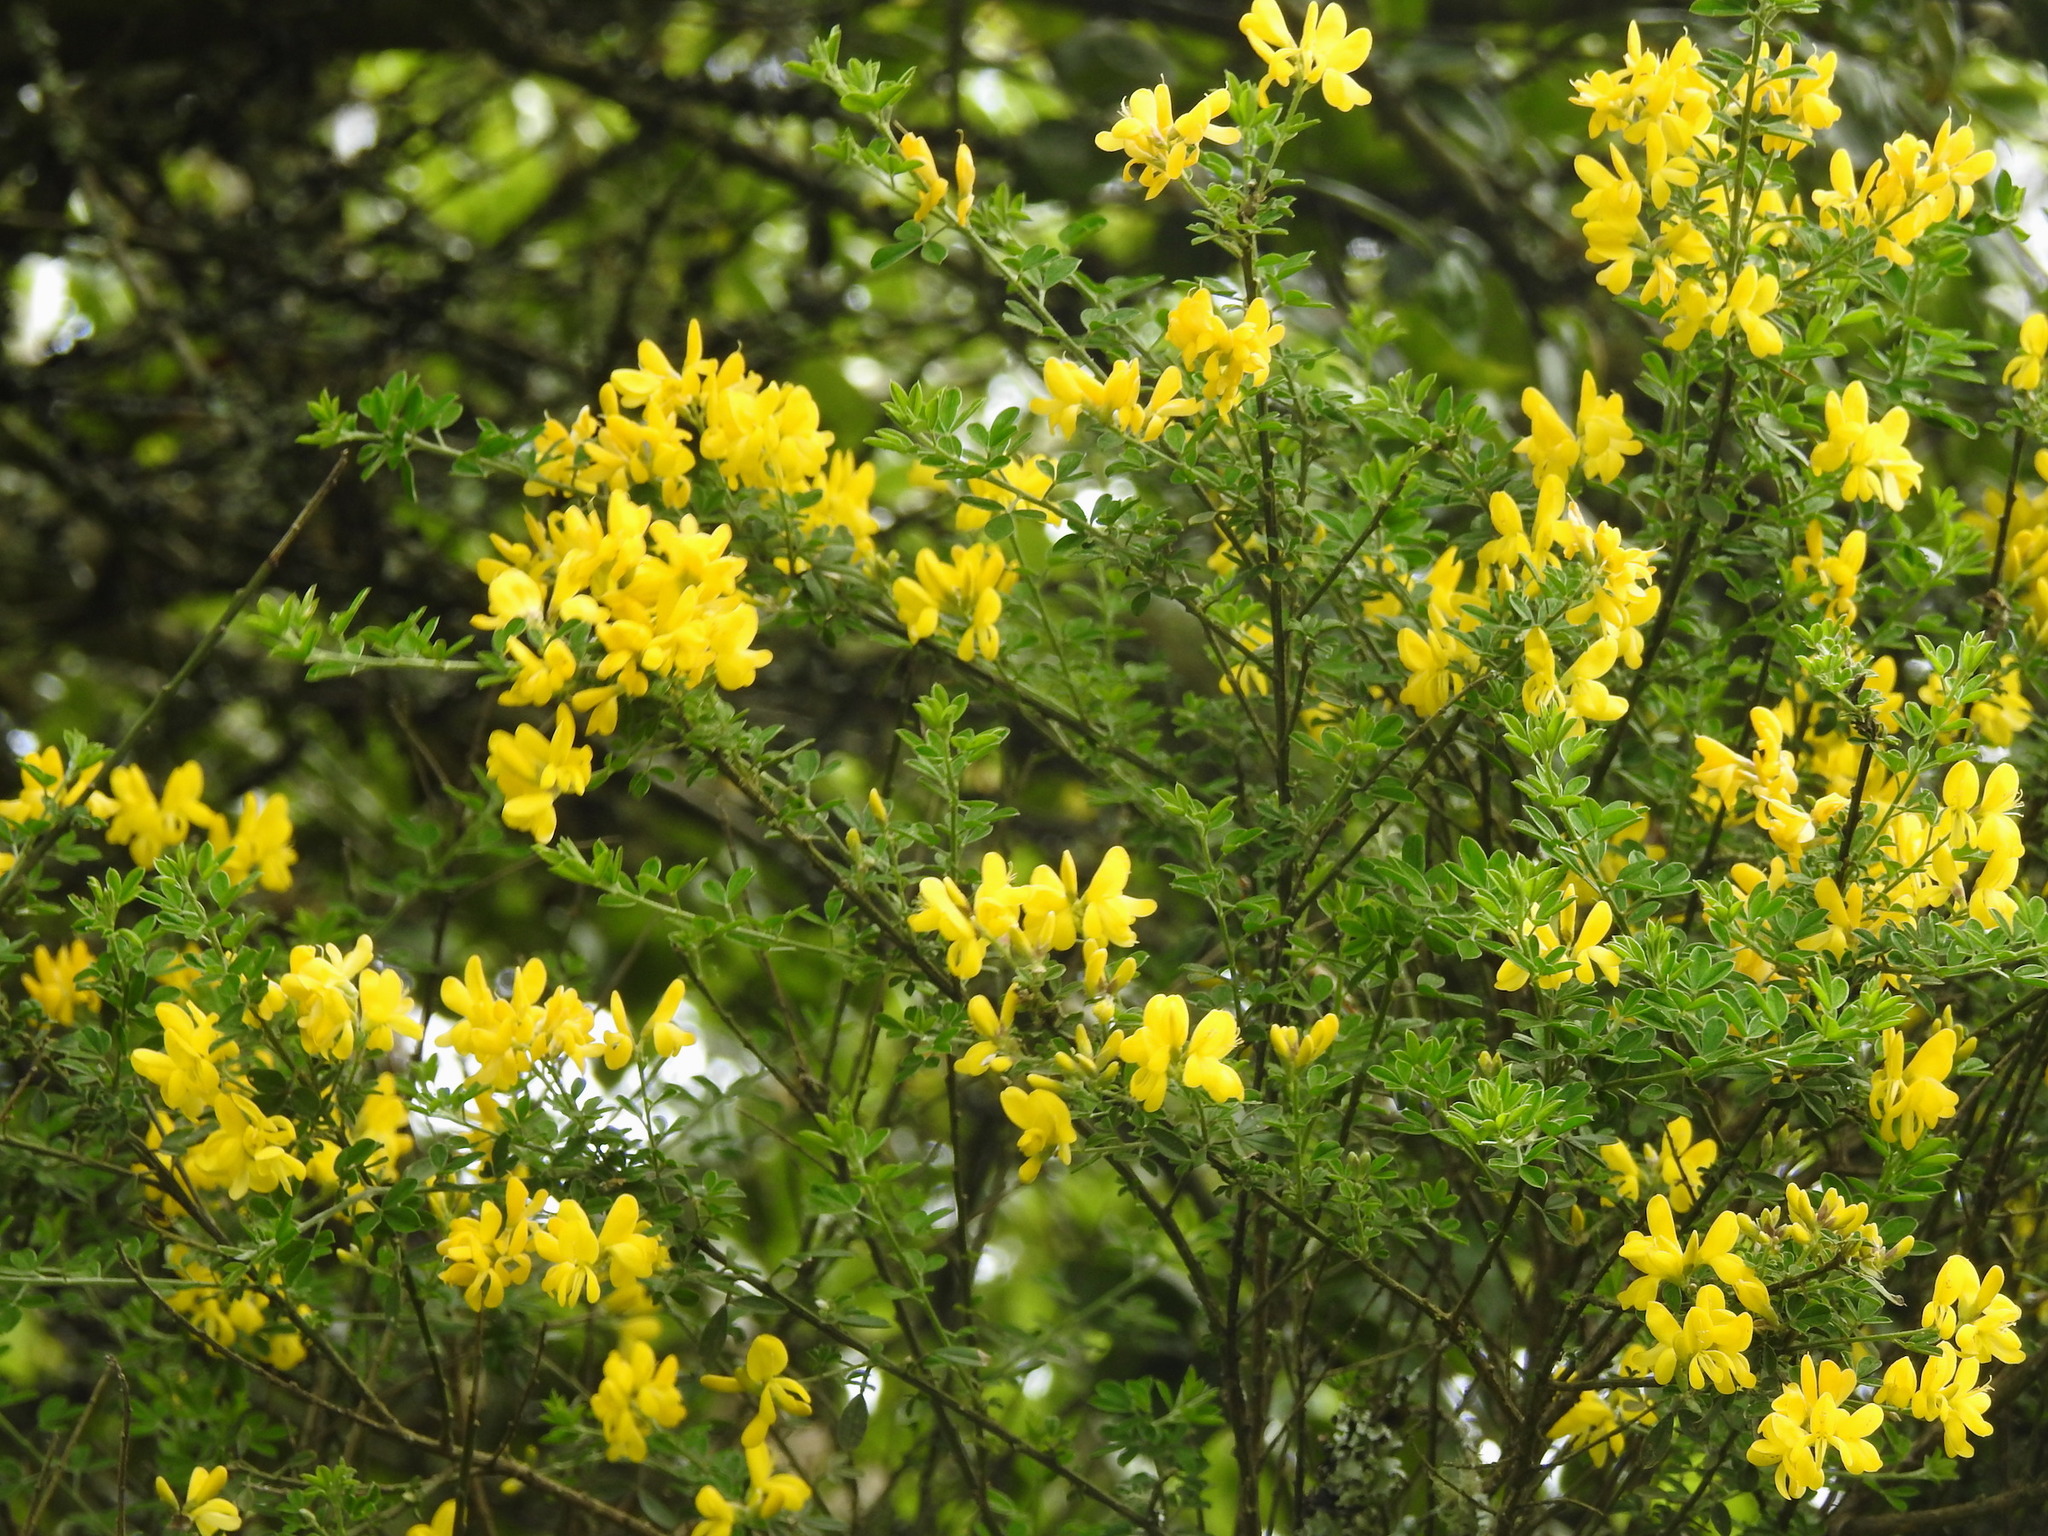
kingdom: Plantae
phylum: Tracheophyta
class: Magnoliopsida
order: Fabales
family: Fabaceae
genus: Genista
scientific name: Genista monspessulana
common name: Montpellier broom
